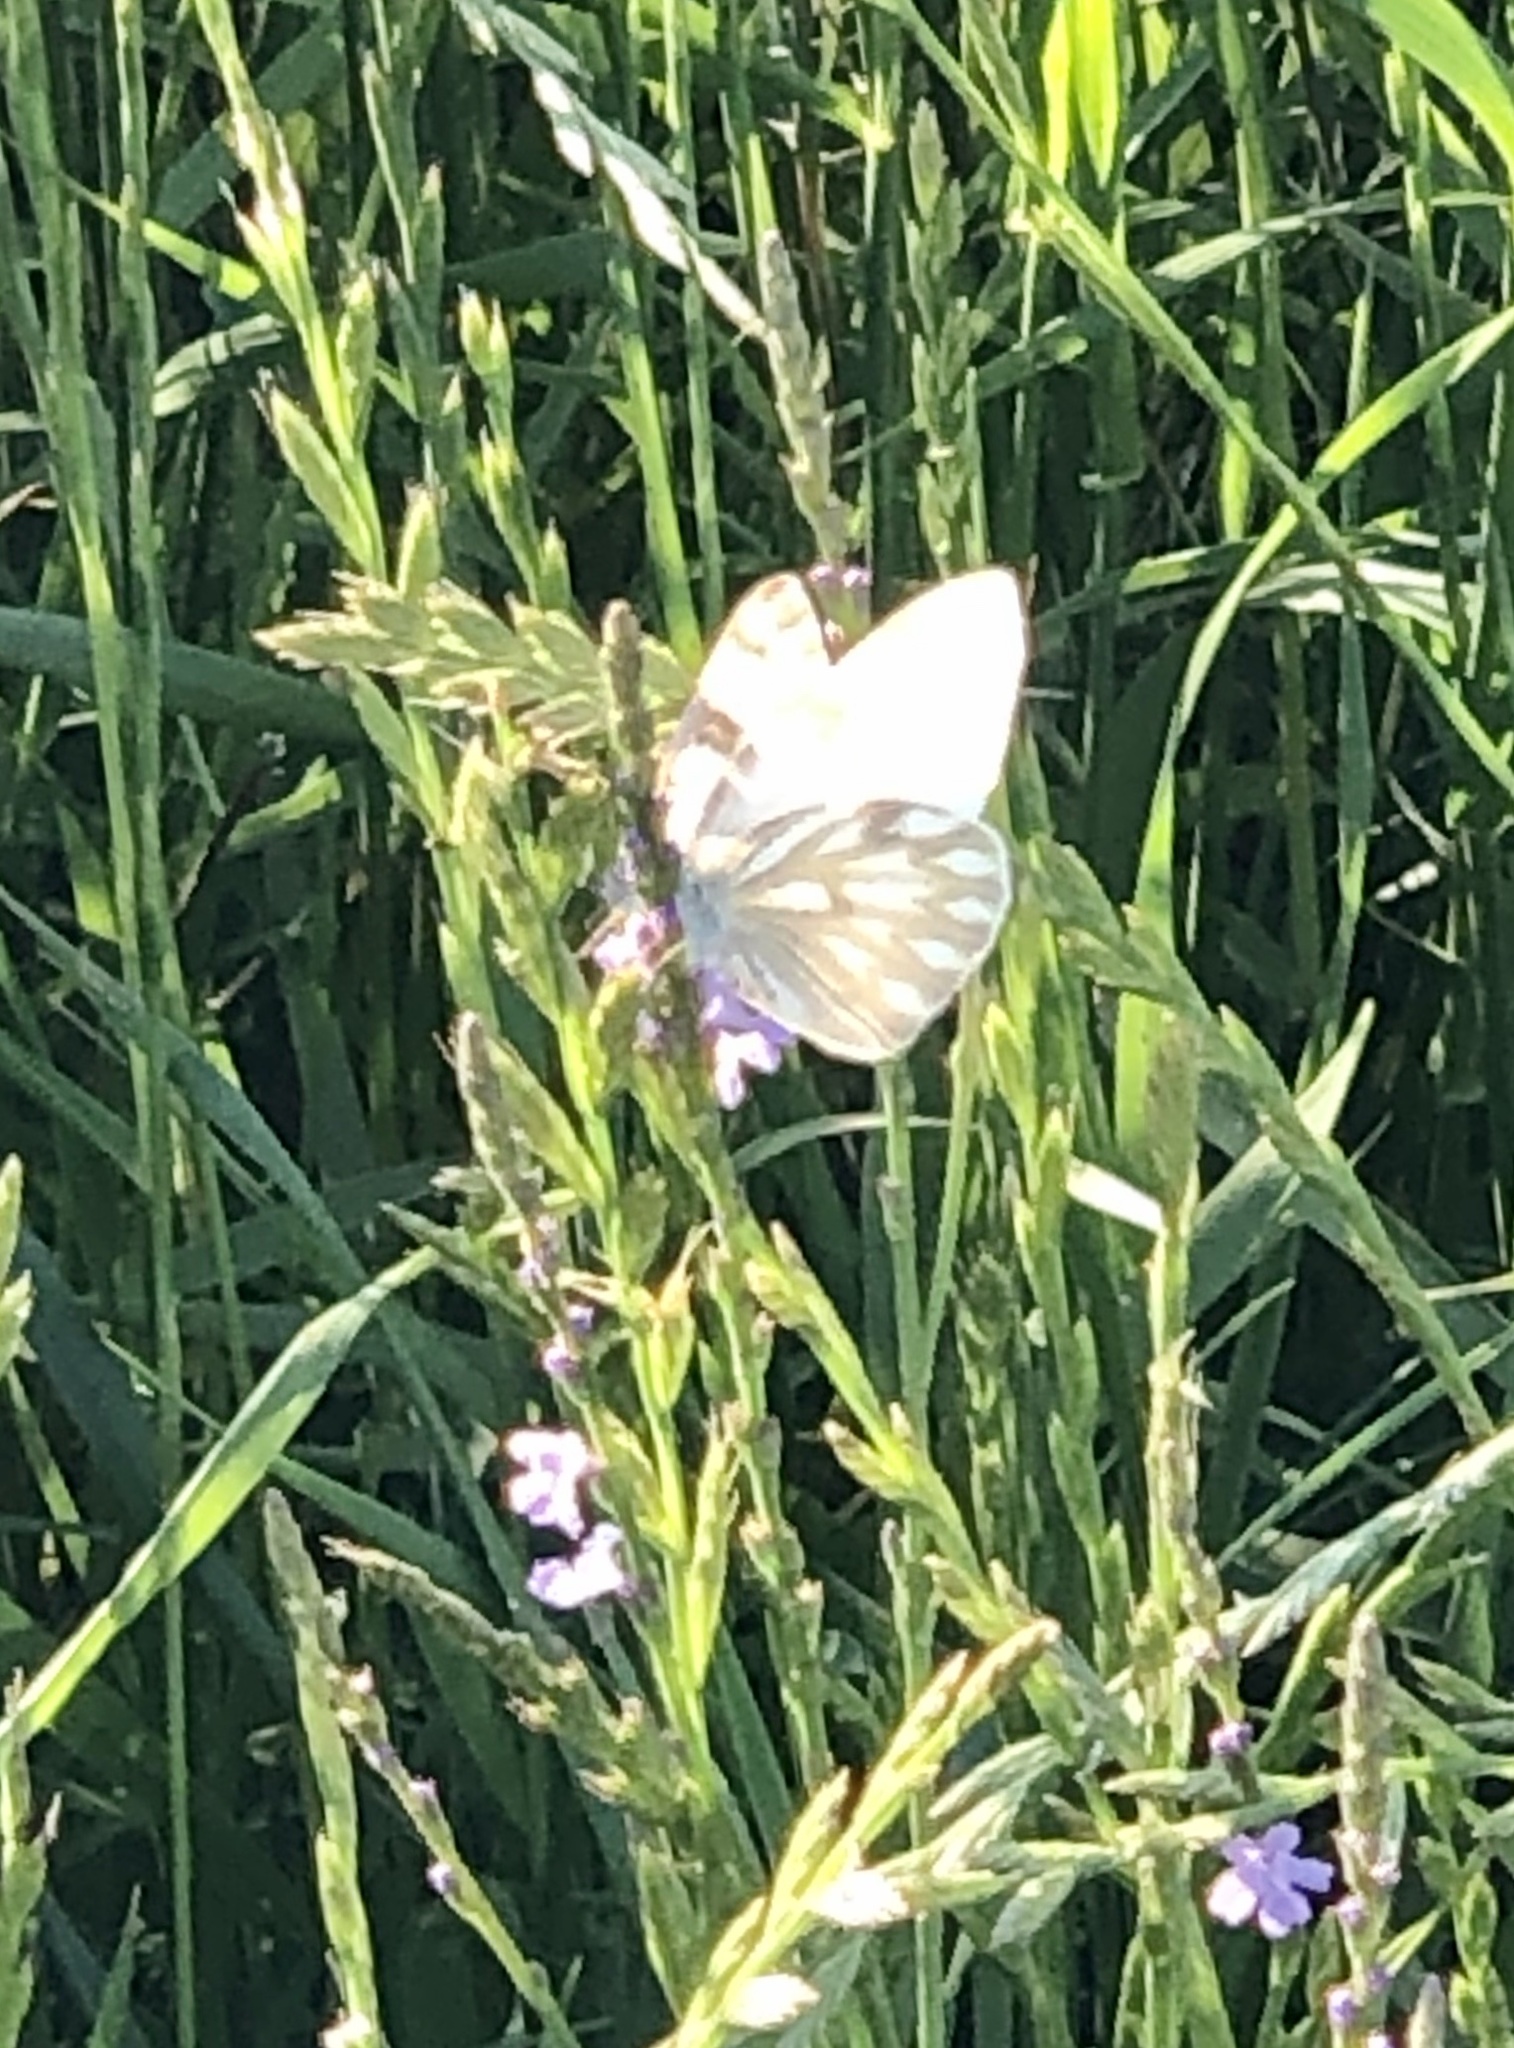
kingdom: Animalia
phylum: Arthropoda
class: Insecta
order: Lepidoptera
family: Pieridae
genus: Pontia
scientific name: Pontia protodice
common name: Checkered white
